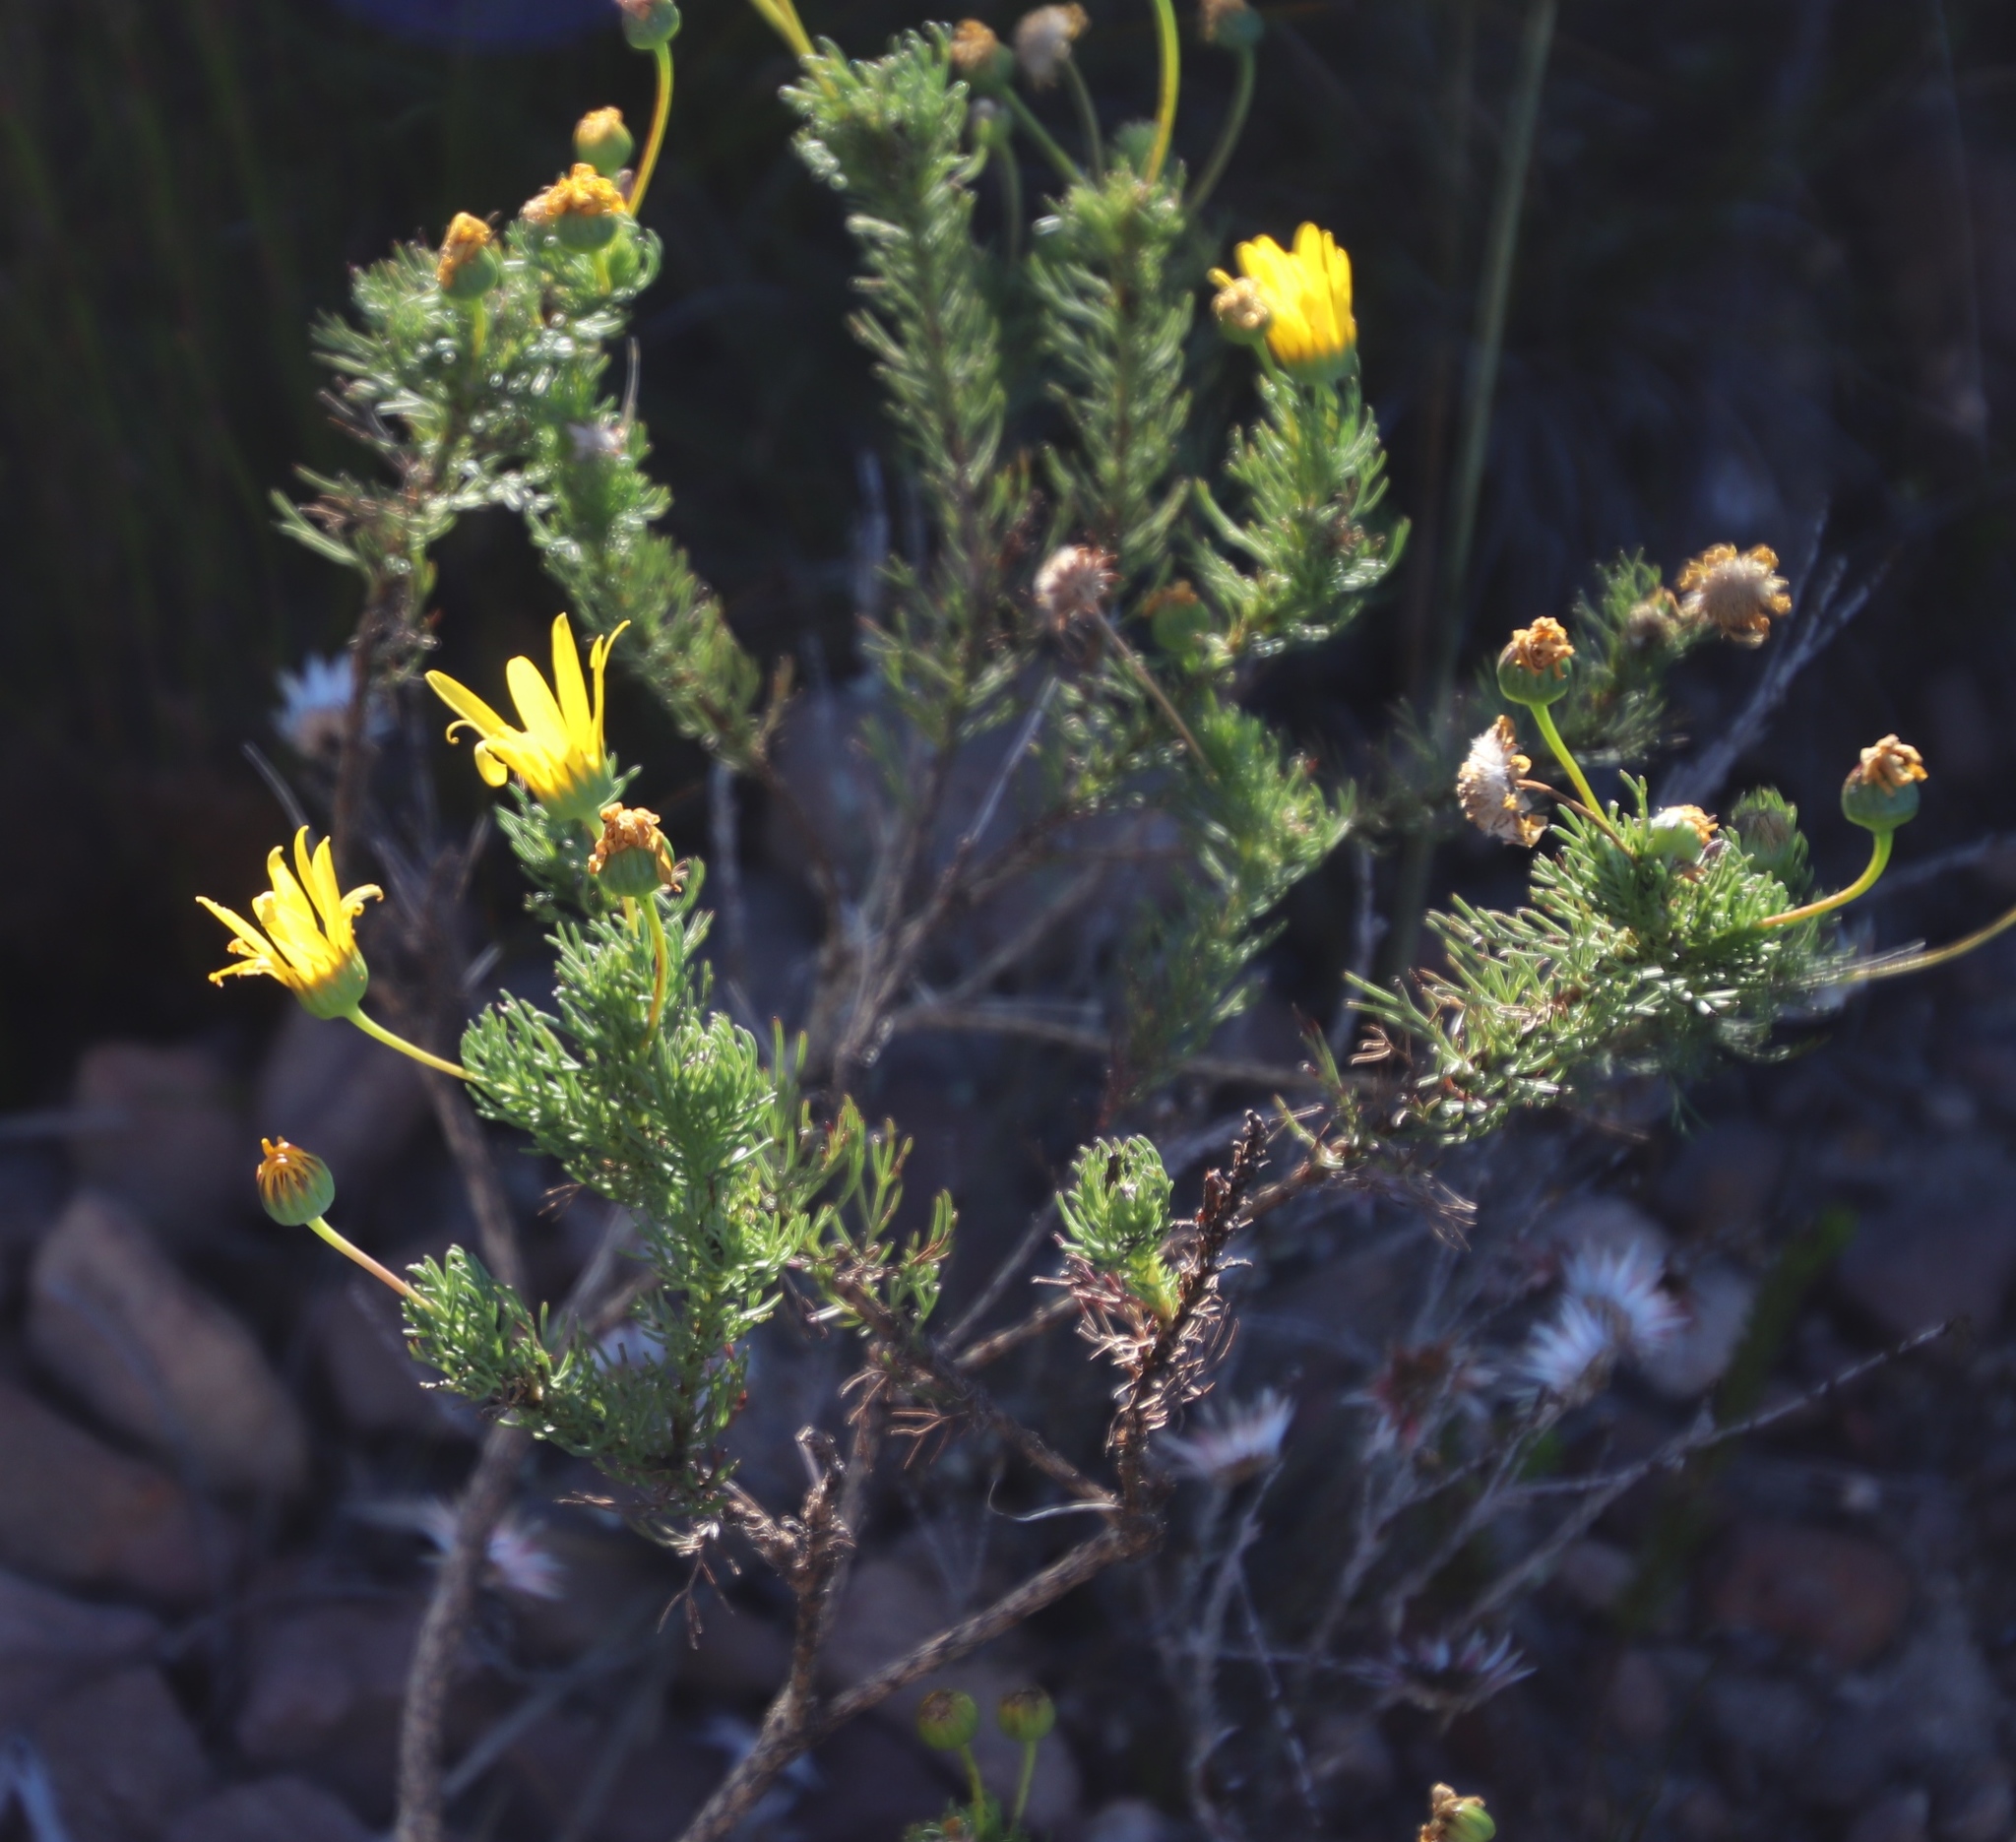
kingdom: Plantae
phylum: Tracheophyta
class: Magnoliopsida
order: Asterales
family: Asteraceae
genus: Euryops
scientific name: Euryops abrotanifolius
